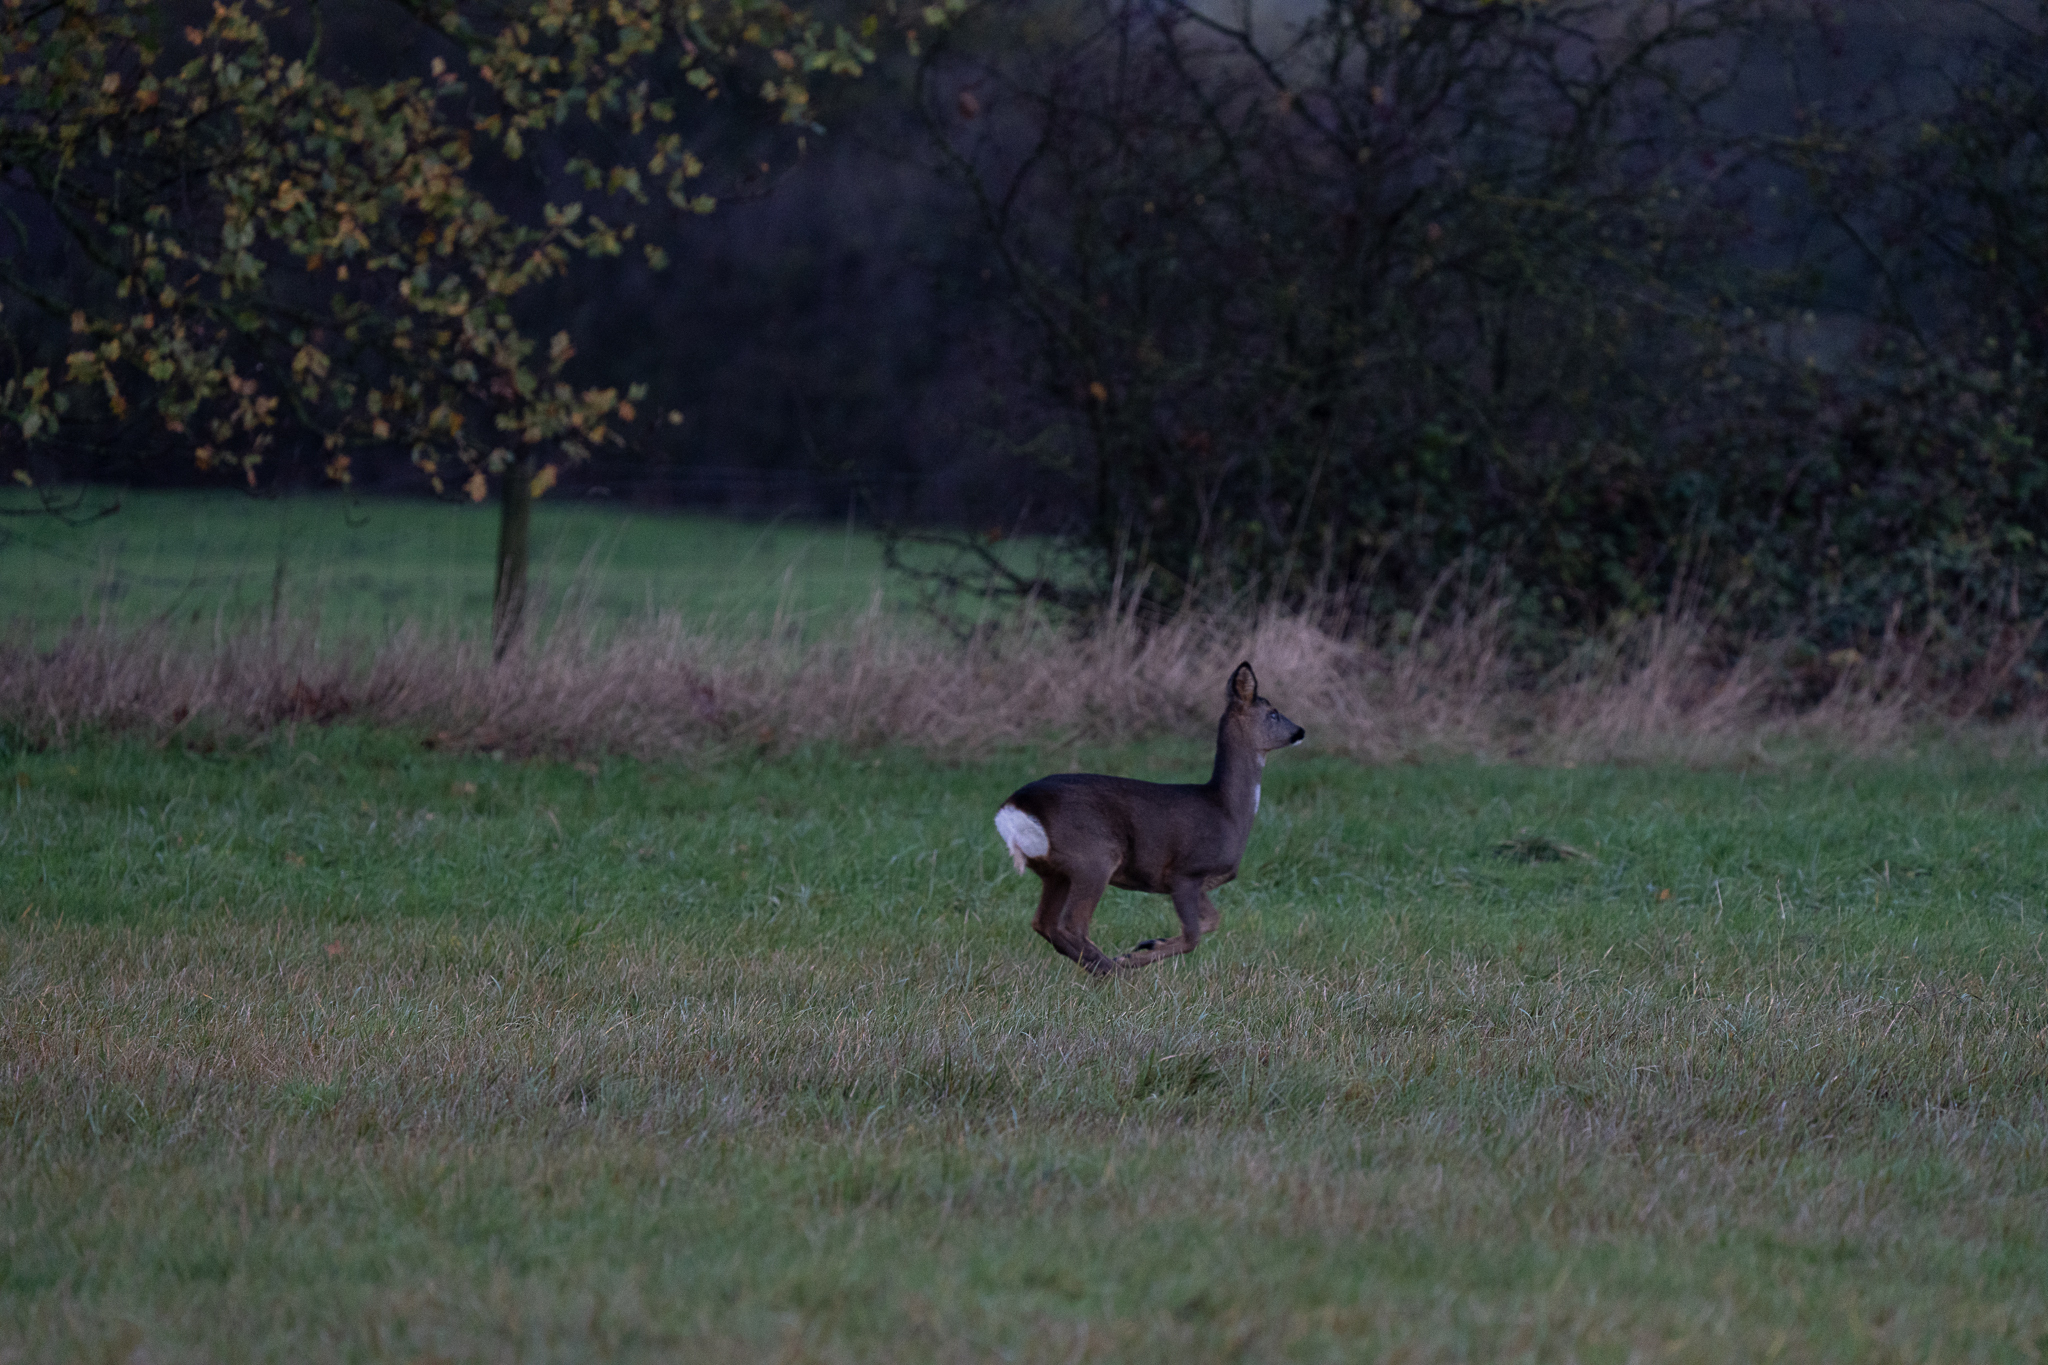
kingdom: Animalia
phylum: Chordata
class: Mammalia
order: Artiodactyla
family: Cervidae
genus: Capreolus
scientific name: Capreolus capreolus
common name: Western roe deer
